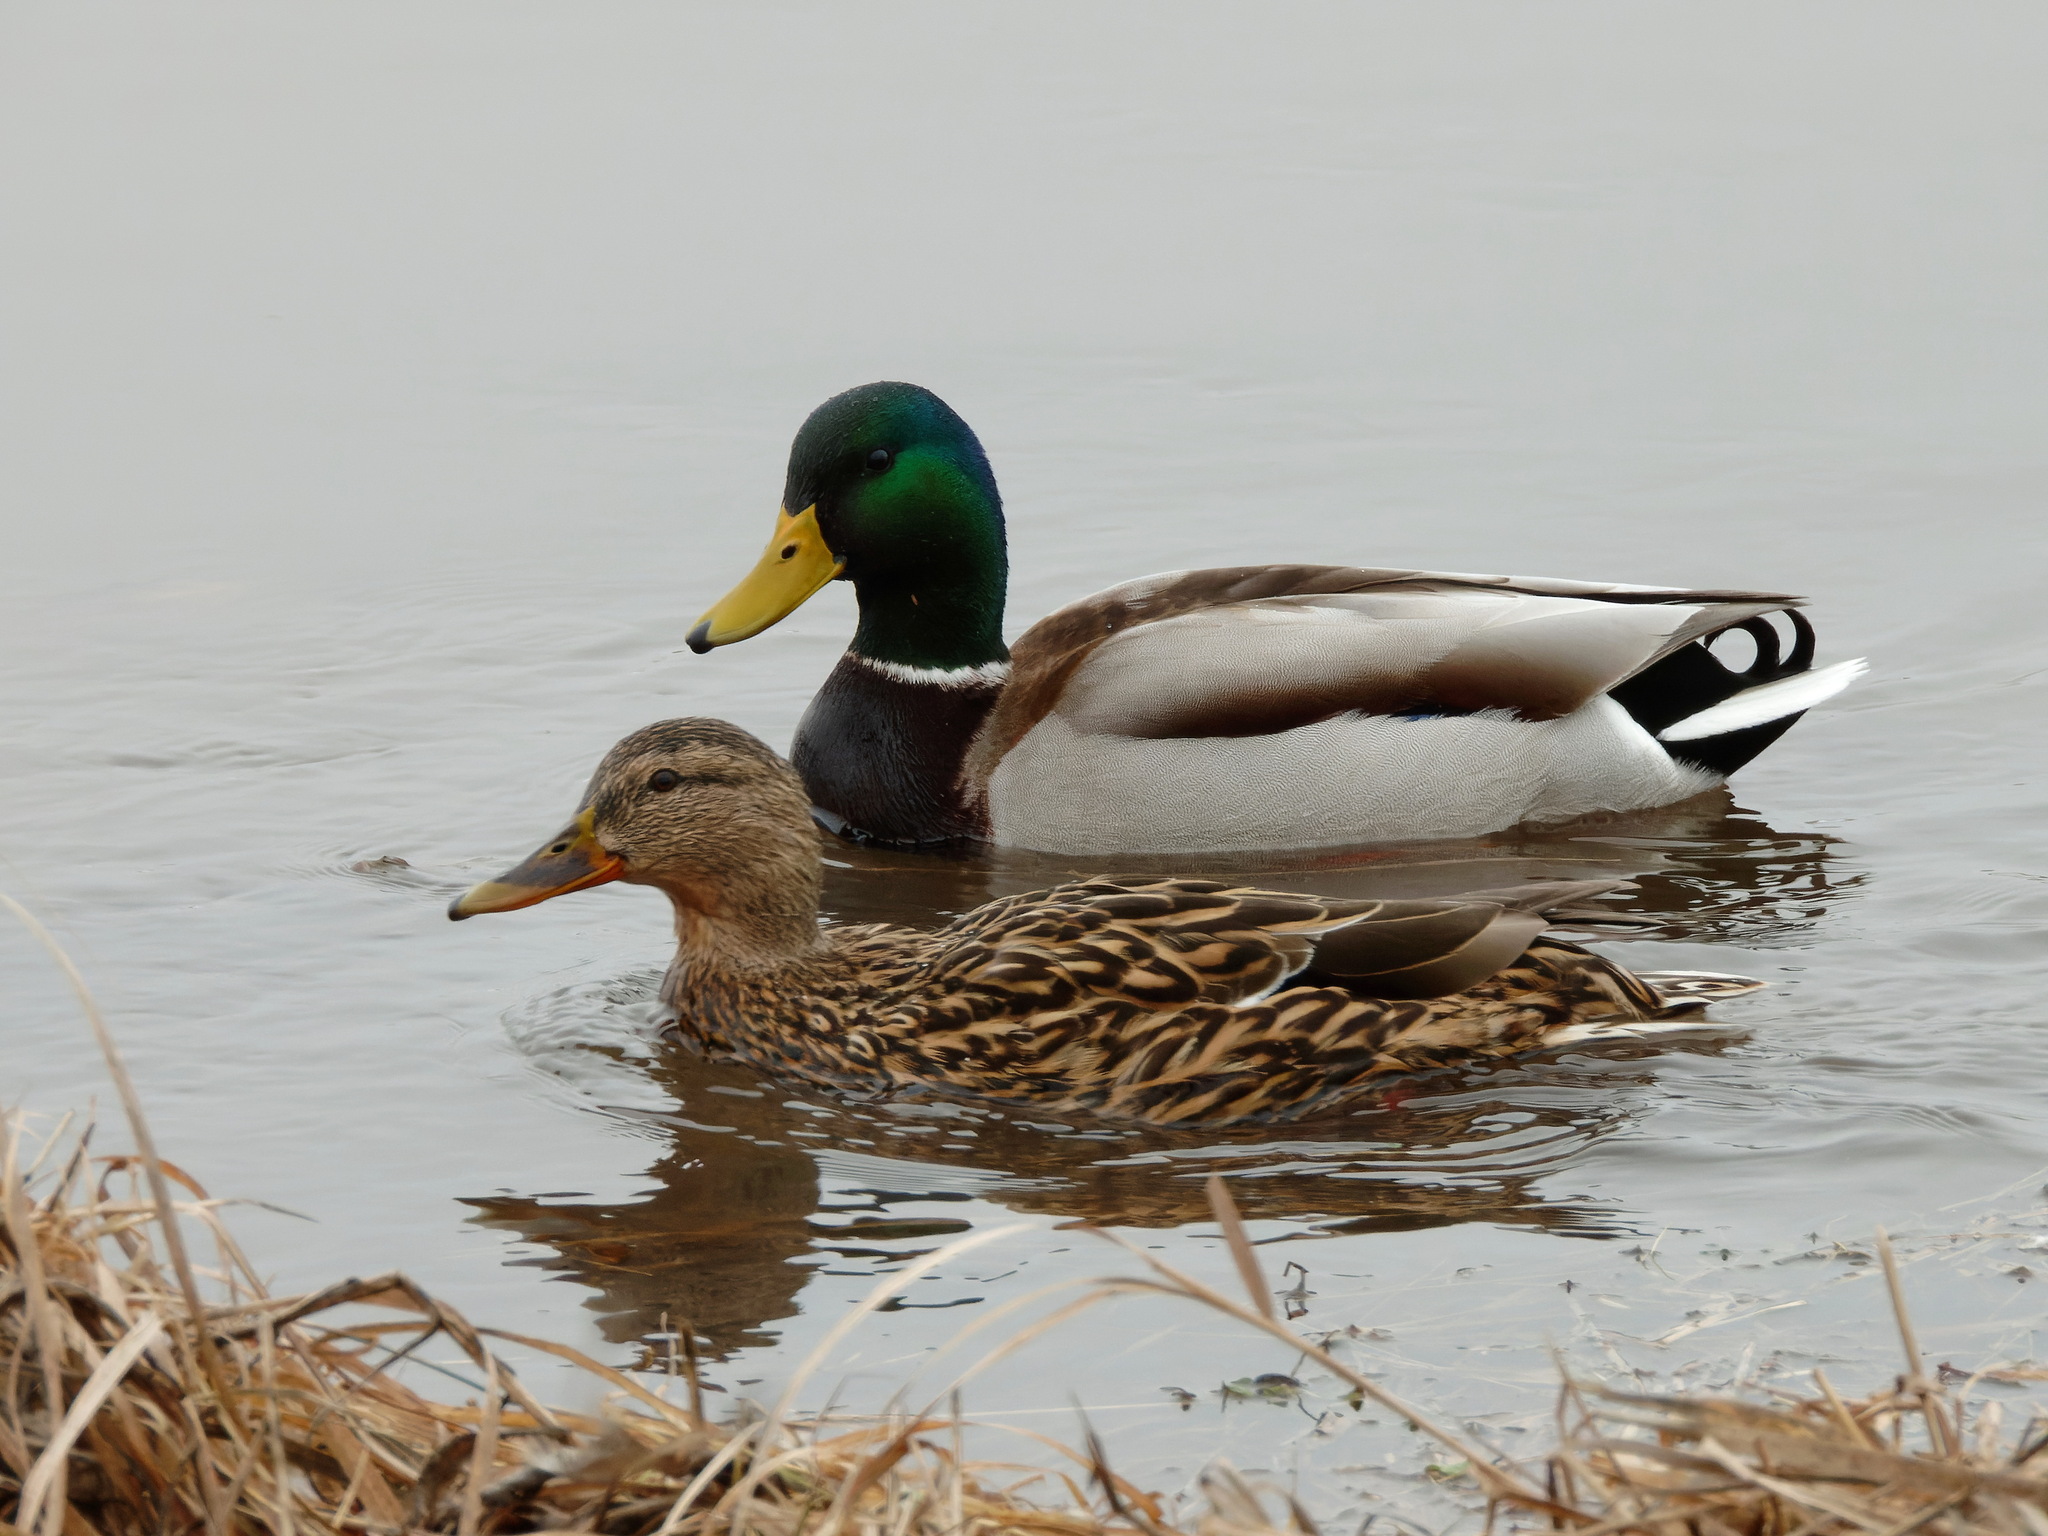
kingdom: Animalia
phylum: Chordata
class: Aves
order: Anseriformes
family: Anatidae
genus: Anas
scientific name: Anas platyrhynchos
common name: Mallard
